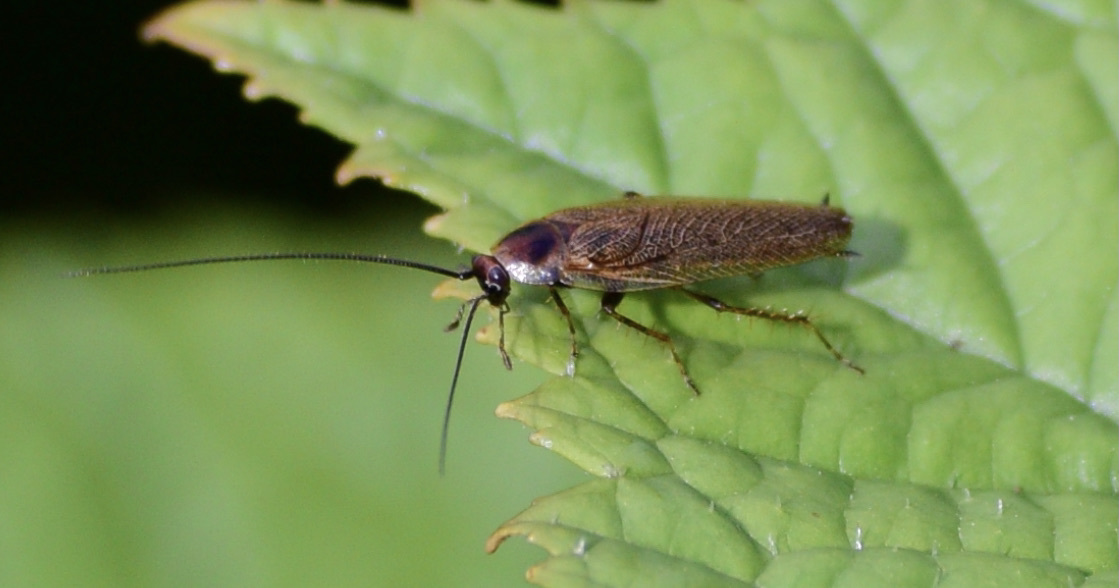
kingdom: Animalia
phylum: Arthropoda
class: Insecta
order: Blattodea
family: Ectobiidae
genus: Ectobius
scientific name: Ectobius lapponicus
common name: Dusky cockroach
